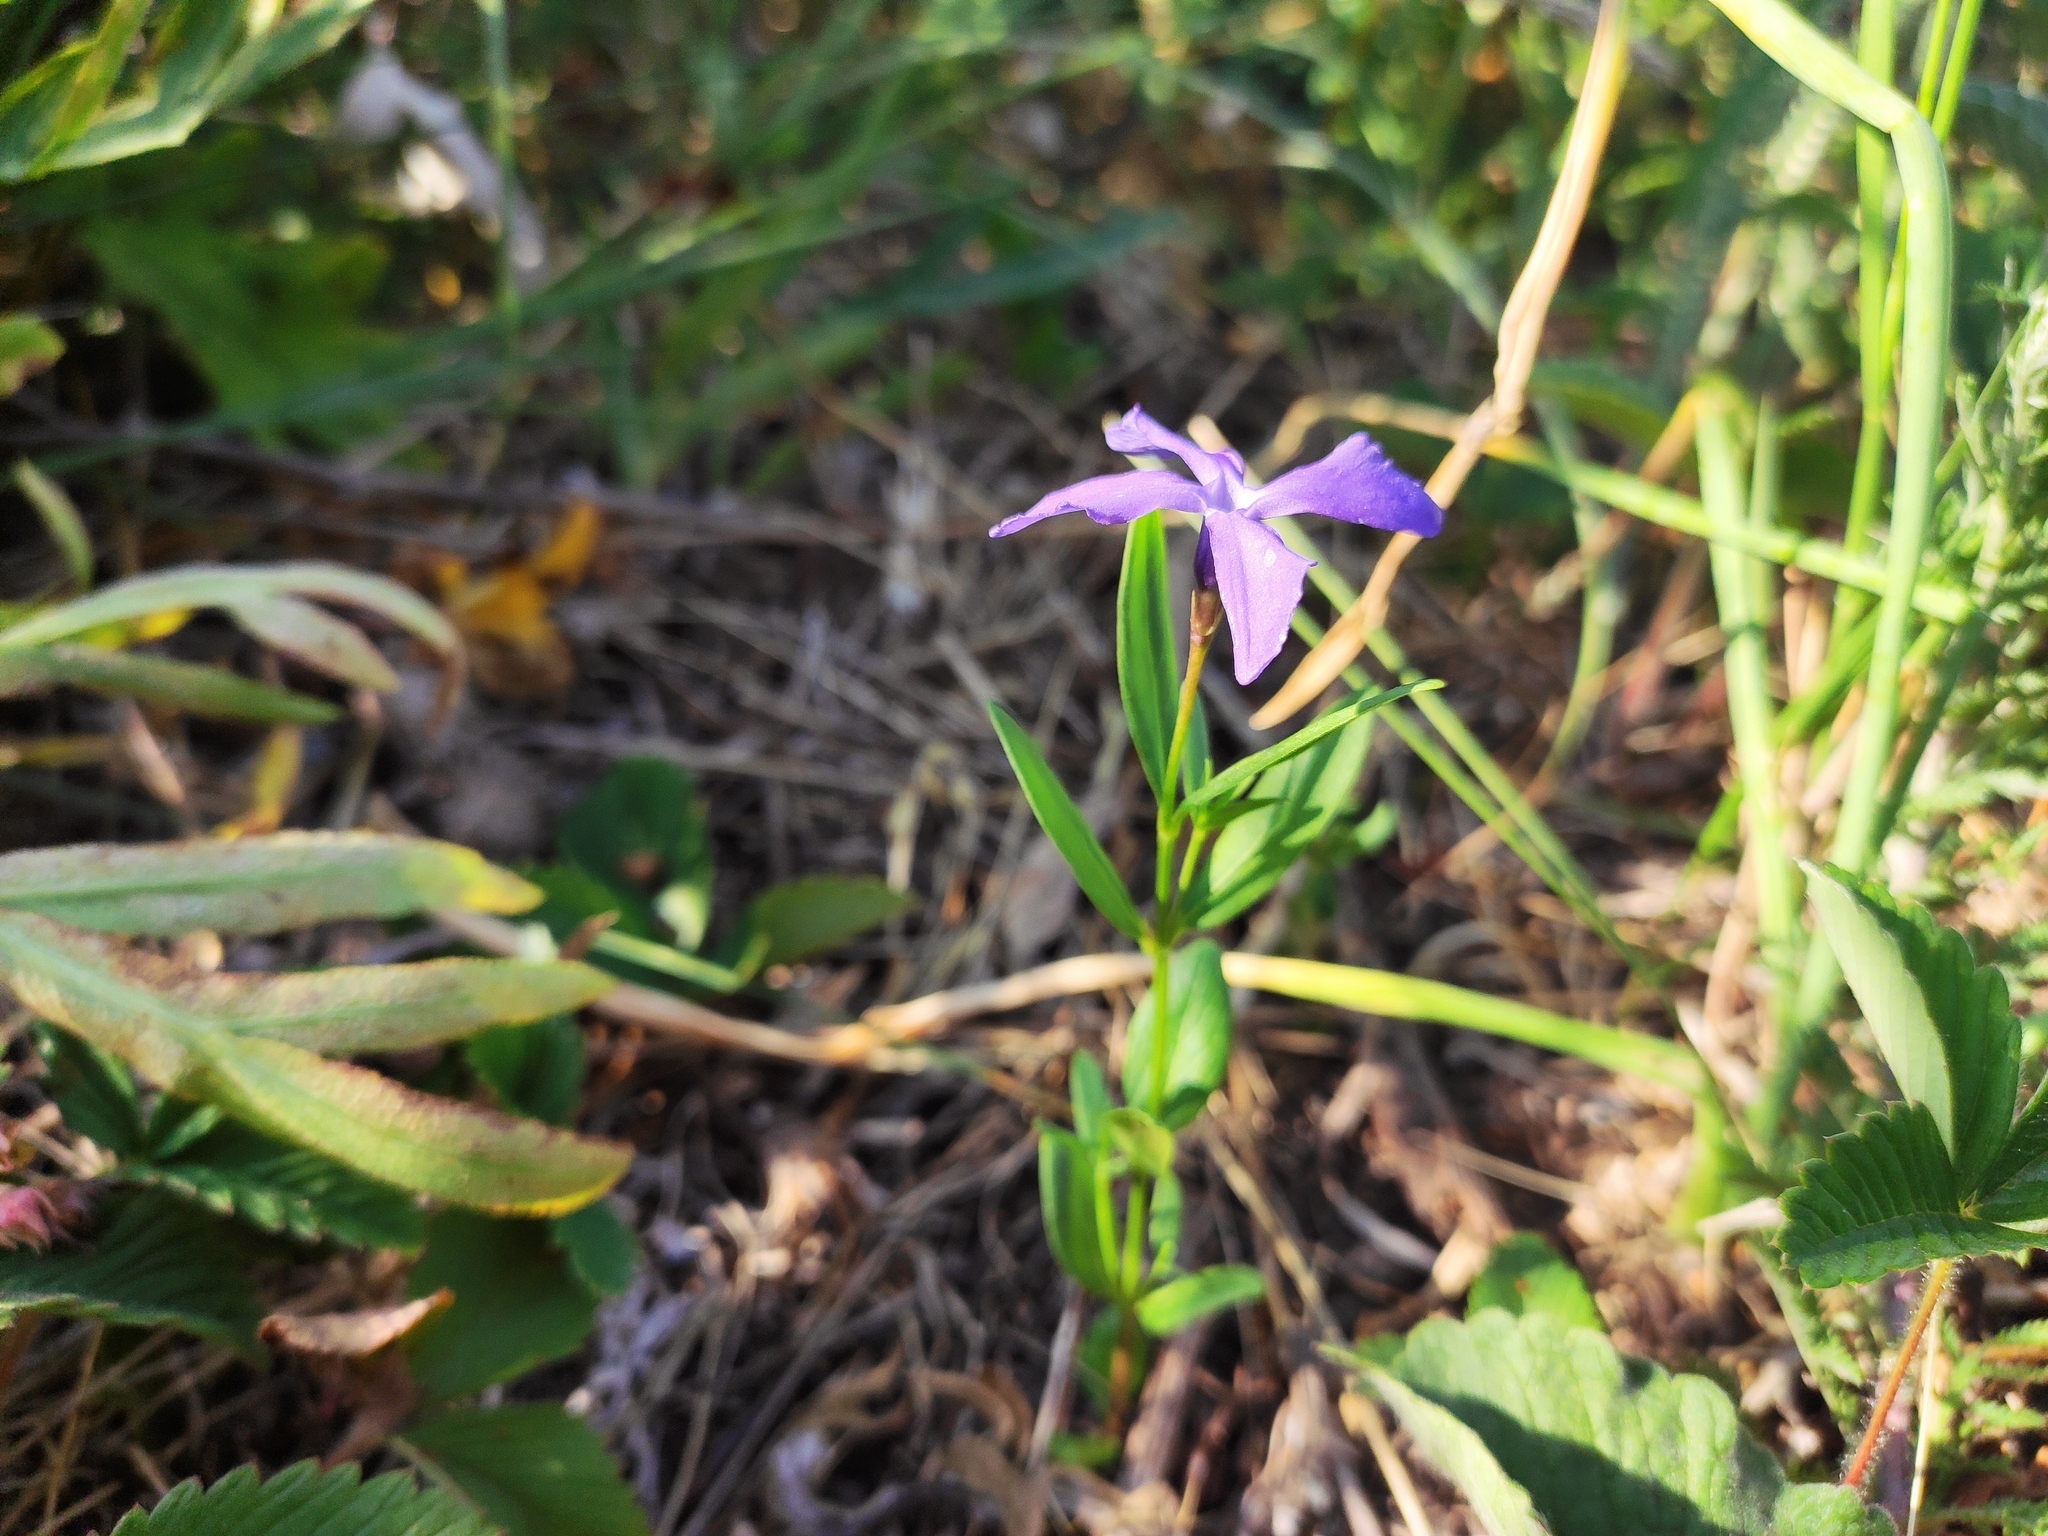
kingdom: Plantae
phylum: Tracheophyta
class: Magnoliopsida
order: Gentianales
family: Apocynaceae
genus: Vinca
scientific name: Vinca herbacea
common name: Herbaceous periwinkle
